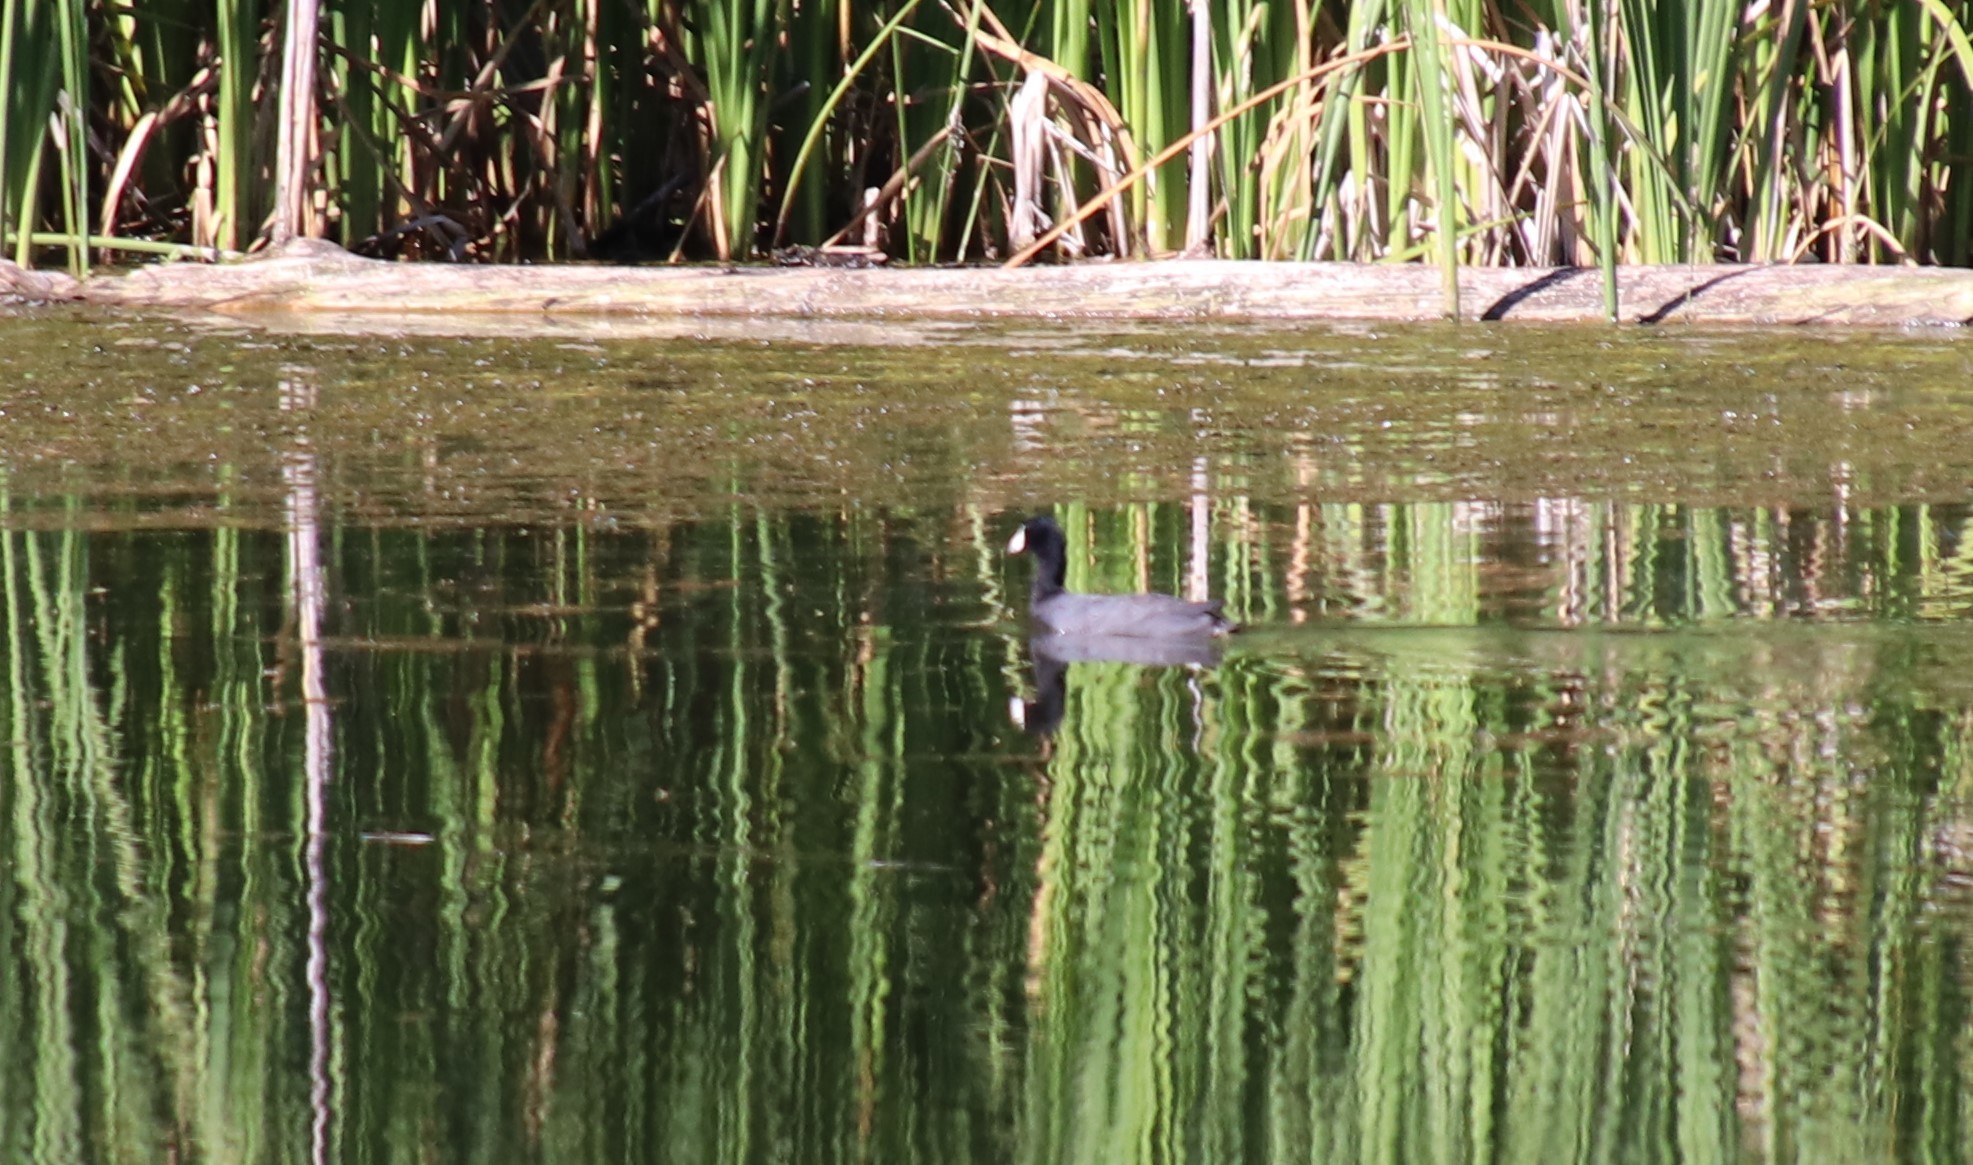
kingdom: Animalia
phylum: Chordata
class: Aves
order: Gruiformes
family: Rallidae
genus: Fulica
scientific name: Fulica americana
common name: American coot
